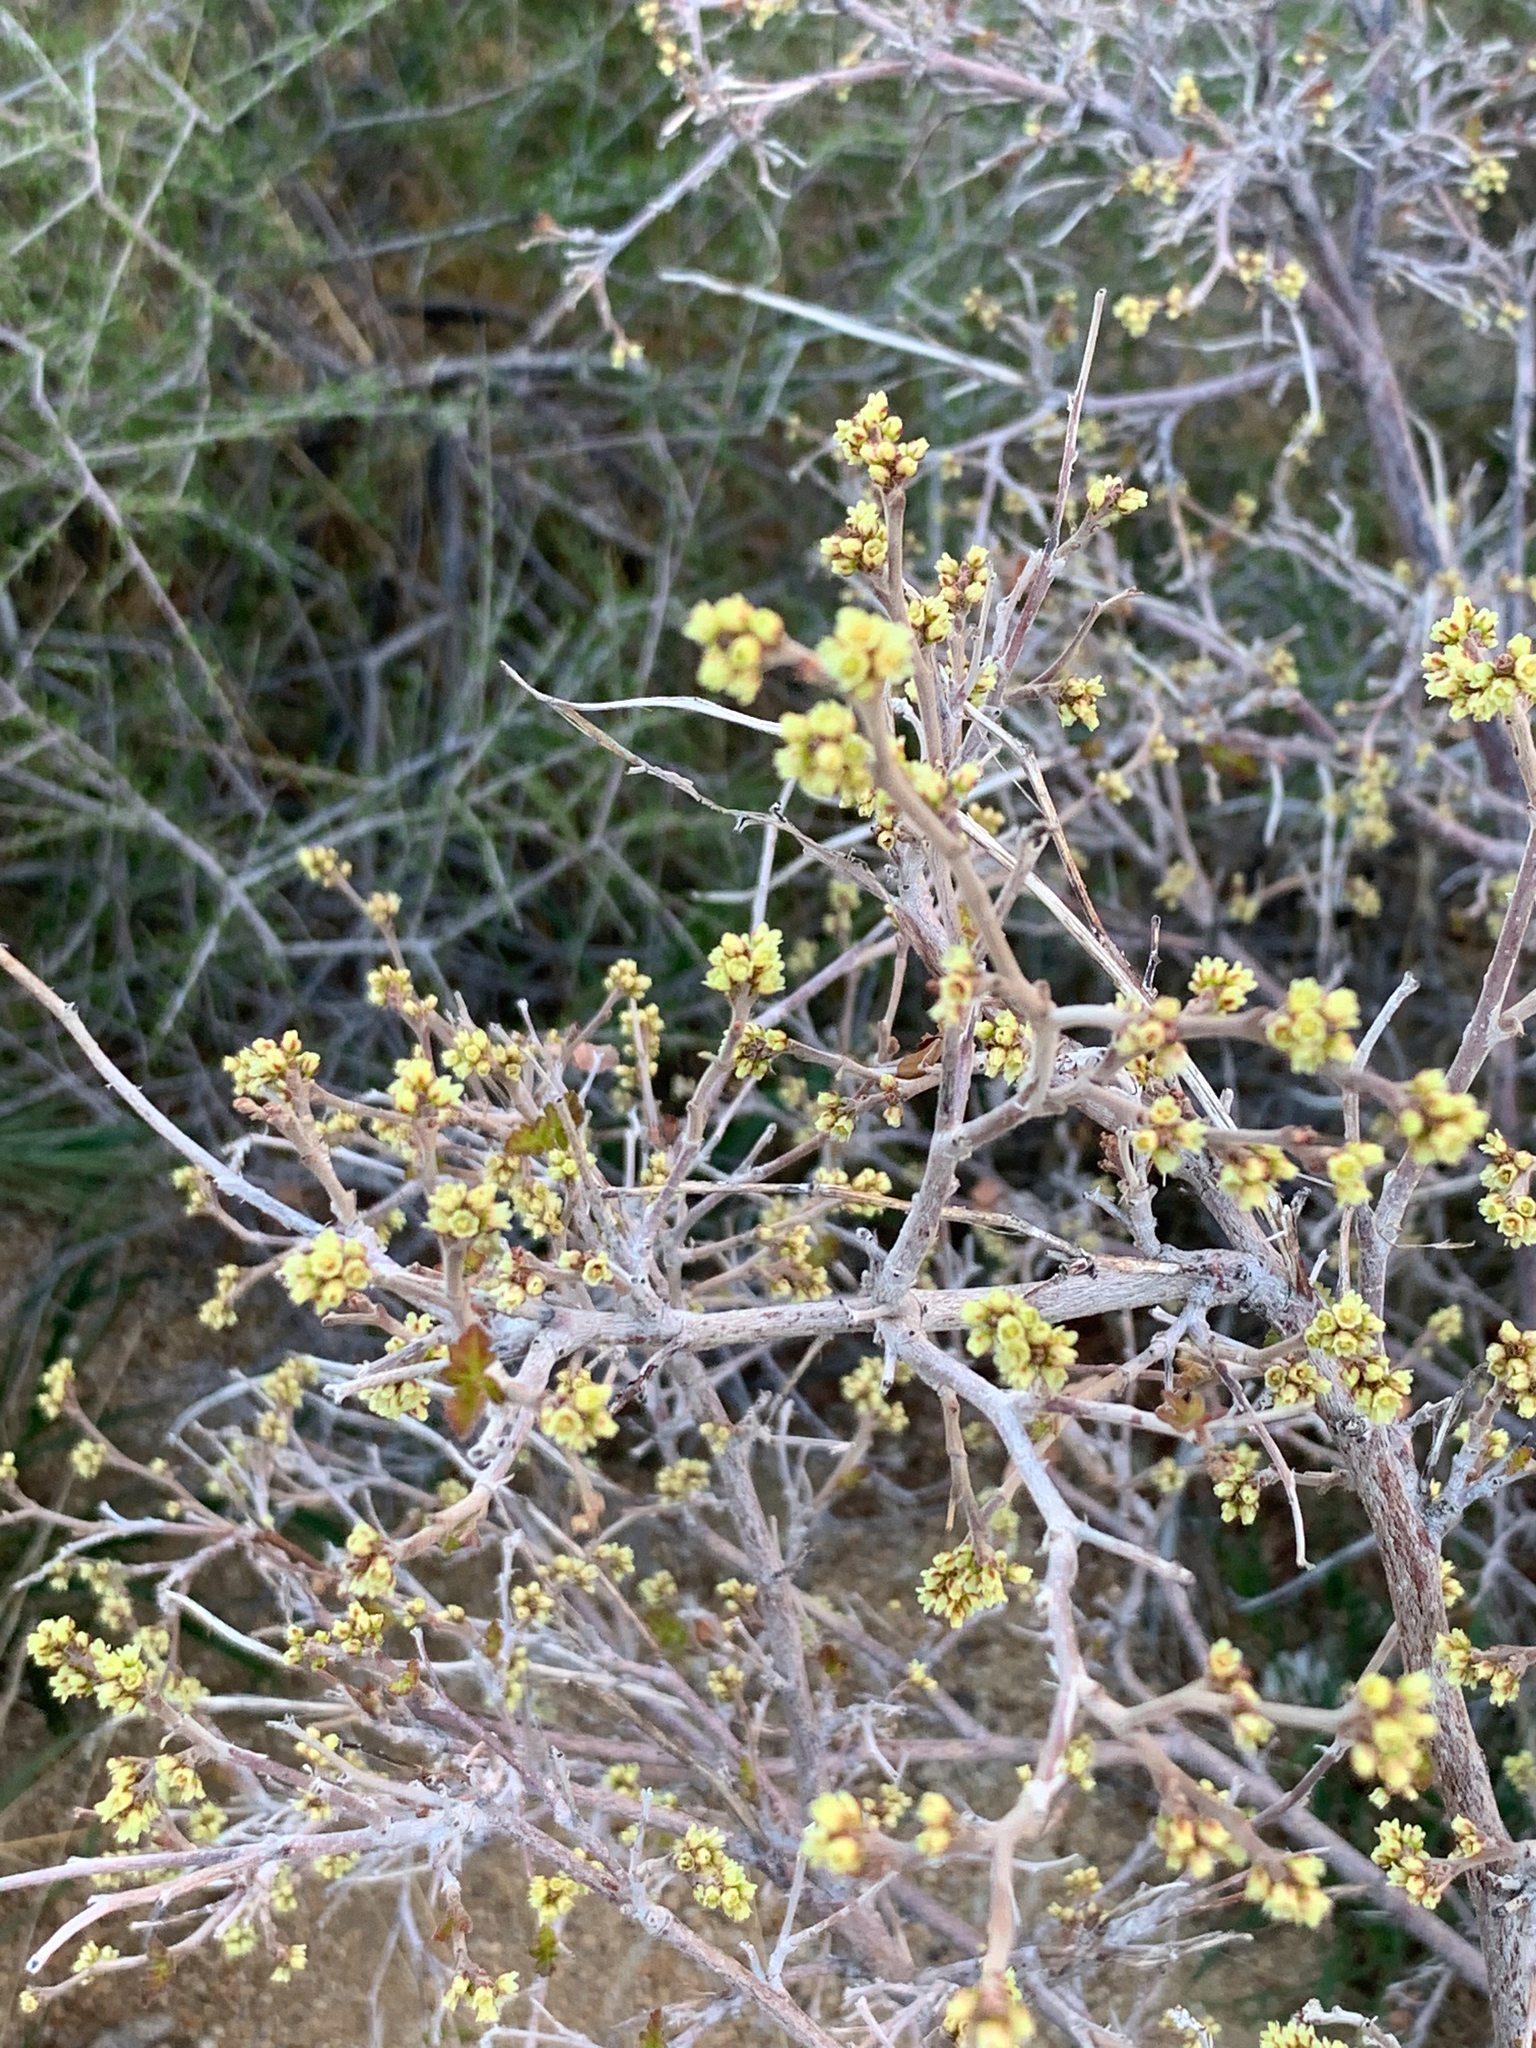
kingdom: Plantae
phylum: Tracheophyta
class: Magnoliopsida
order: Sapindales
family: Anacardiaceae
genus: Rhus
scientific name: Rhus aromatica
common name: Aromatic sumac
